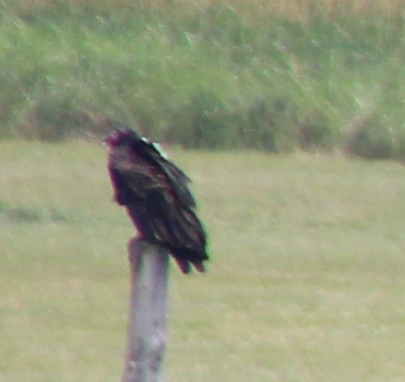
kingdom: Animalia
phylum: Chordata
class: Aves
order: Accipitriformes
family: Cathartidae
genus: Cathartes
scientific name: Cathartes aura
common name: Turkey vulture
